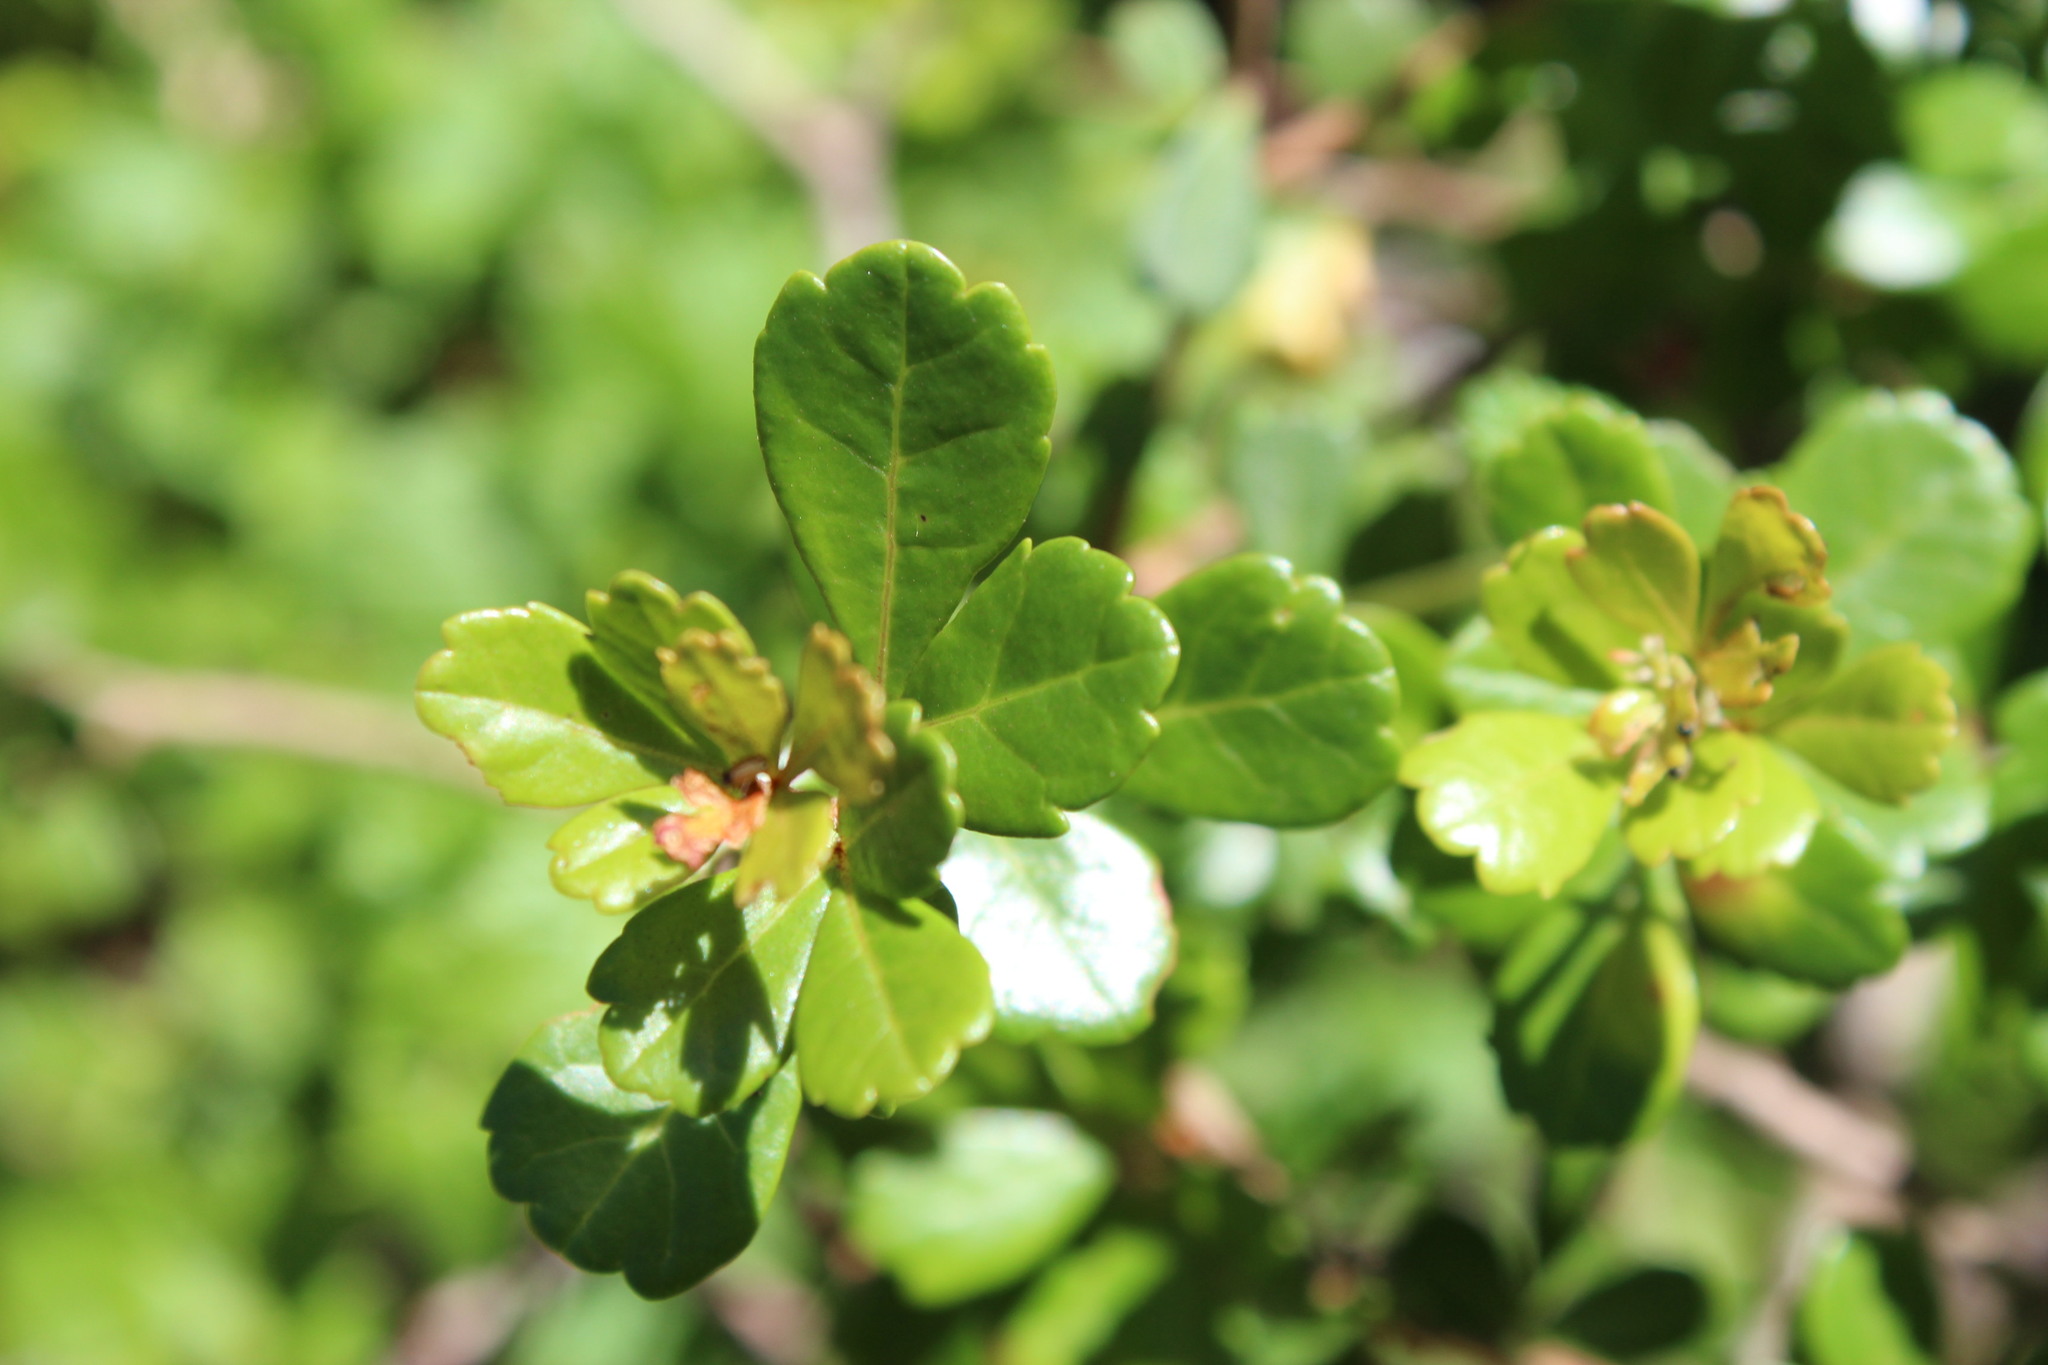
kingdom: Plantae
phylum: Tracheophyta
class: Magnoliopsida
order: Sapindales
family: Anacardiaceae
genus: Searsia
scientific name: Searsia crenata
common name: Crowberry
